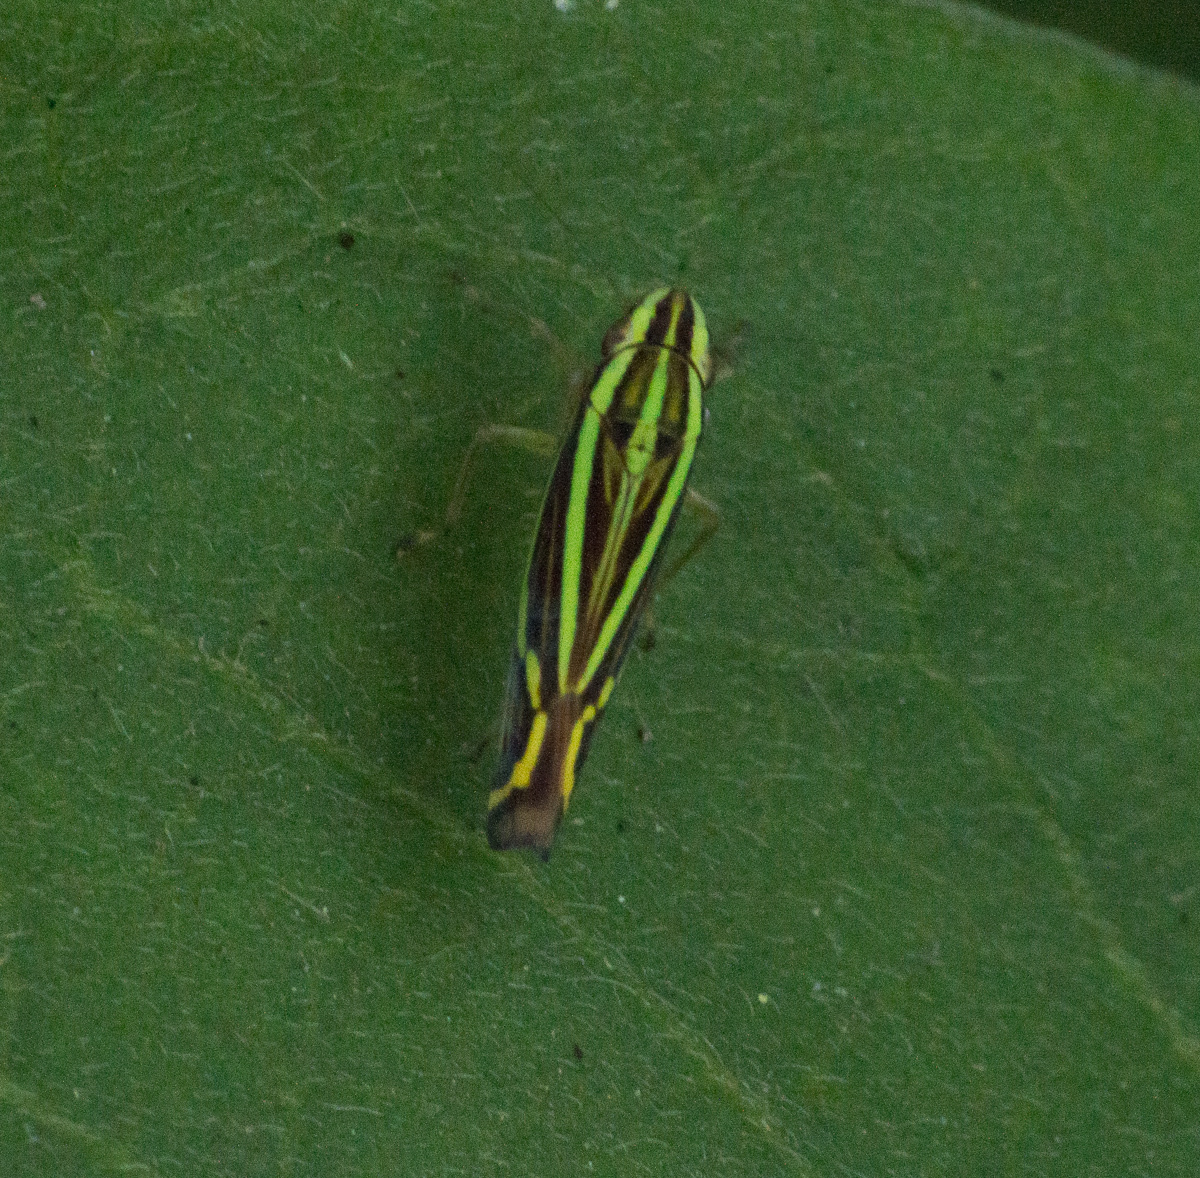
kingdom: Animalia
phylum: Arthropoda
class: Insecta
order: Hemiptera
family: Cicadellidae
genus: Sibovia
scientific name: Sibovia sagata
